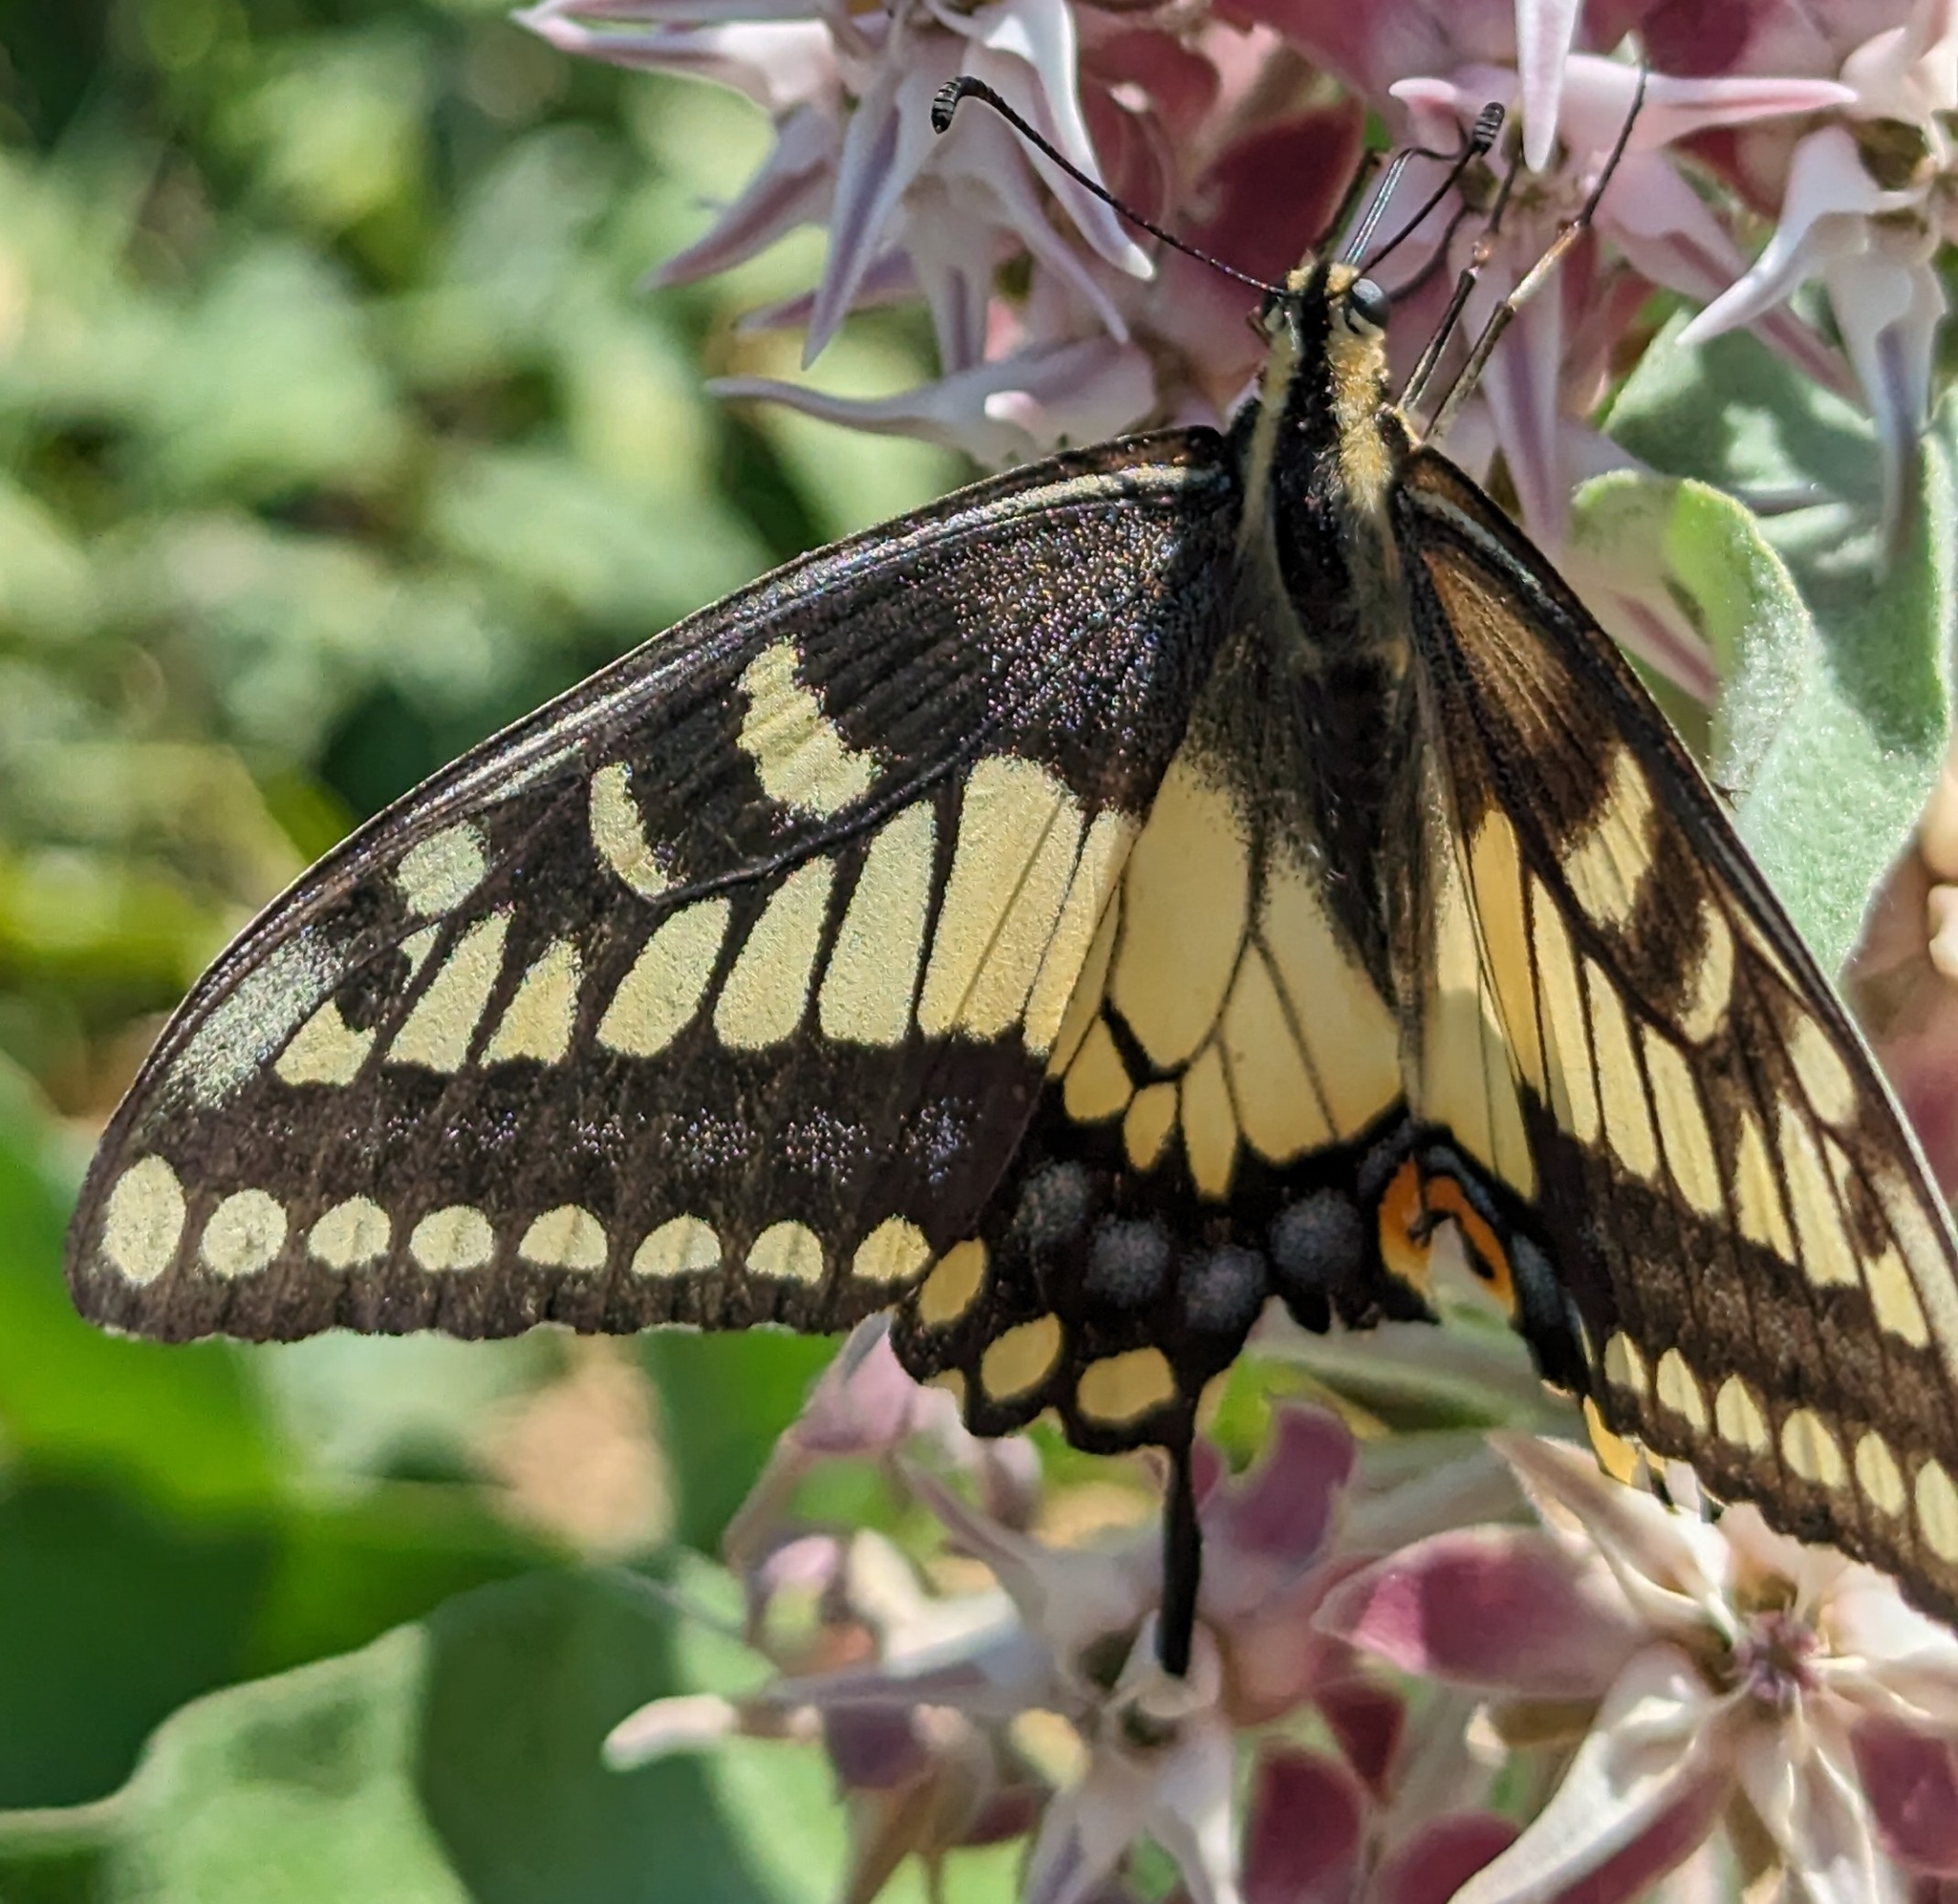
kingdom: Animalia
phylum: Arthropoda
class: Insecta
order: Lepidoptera
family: Papilionidae
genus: Papilio
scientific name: Papilio zelicaon
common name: Anise swallowtail
